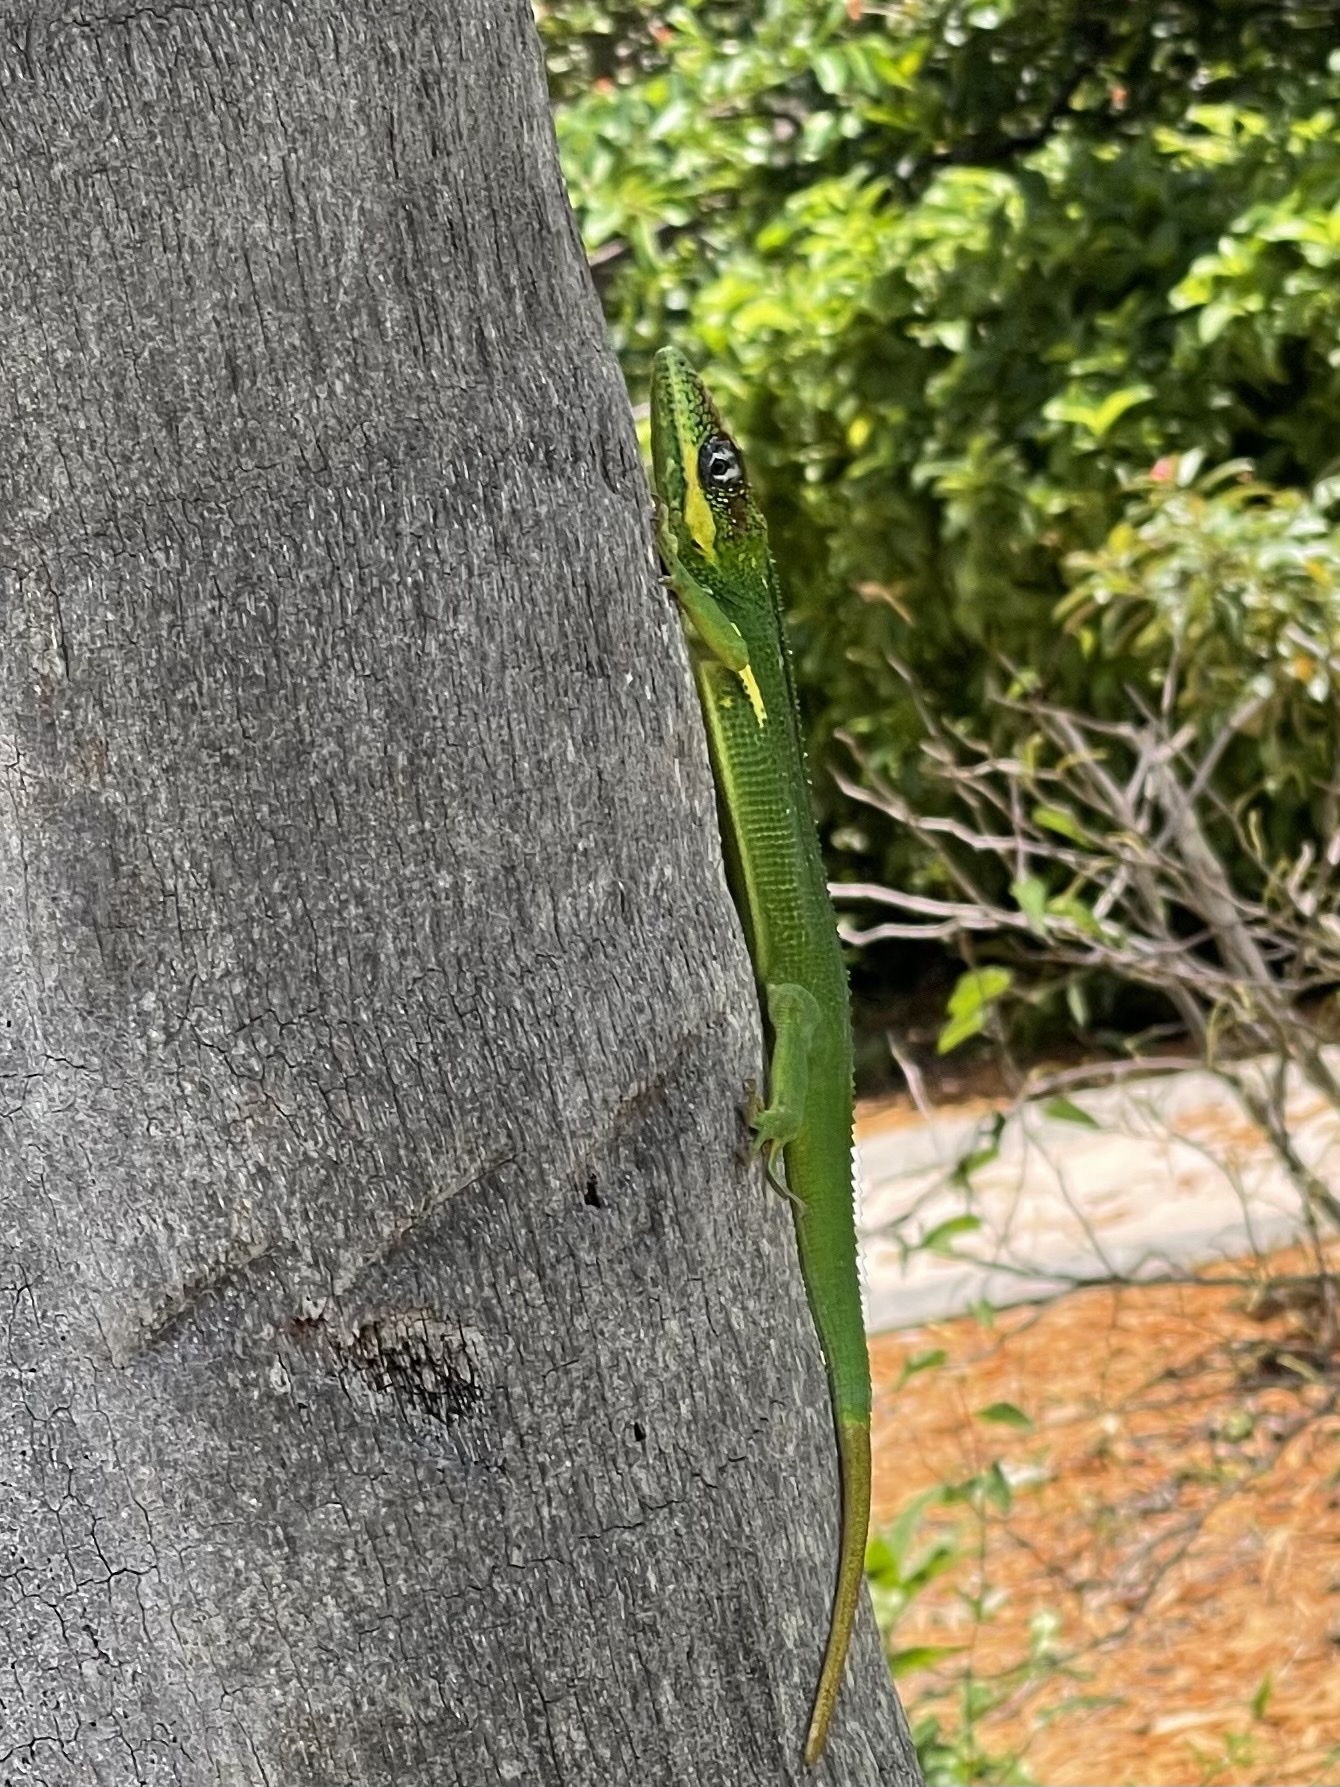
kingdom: Animalia
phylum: Chordata
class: Squamata
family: Dactyloidae
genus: Anolis
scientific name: Anolis equestris
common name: Knight anole
